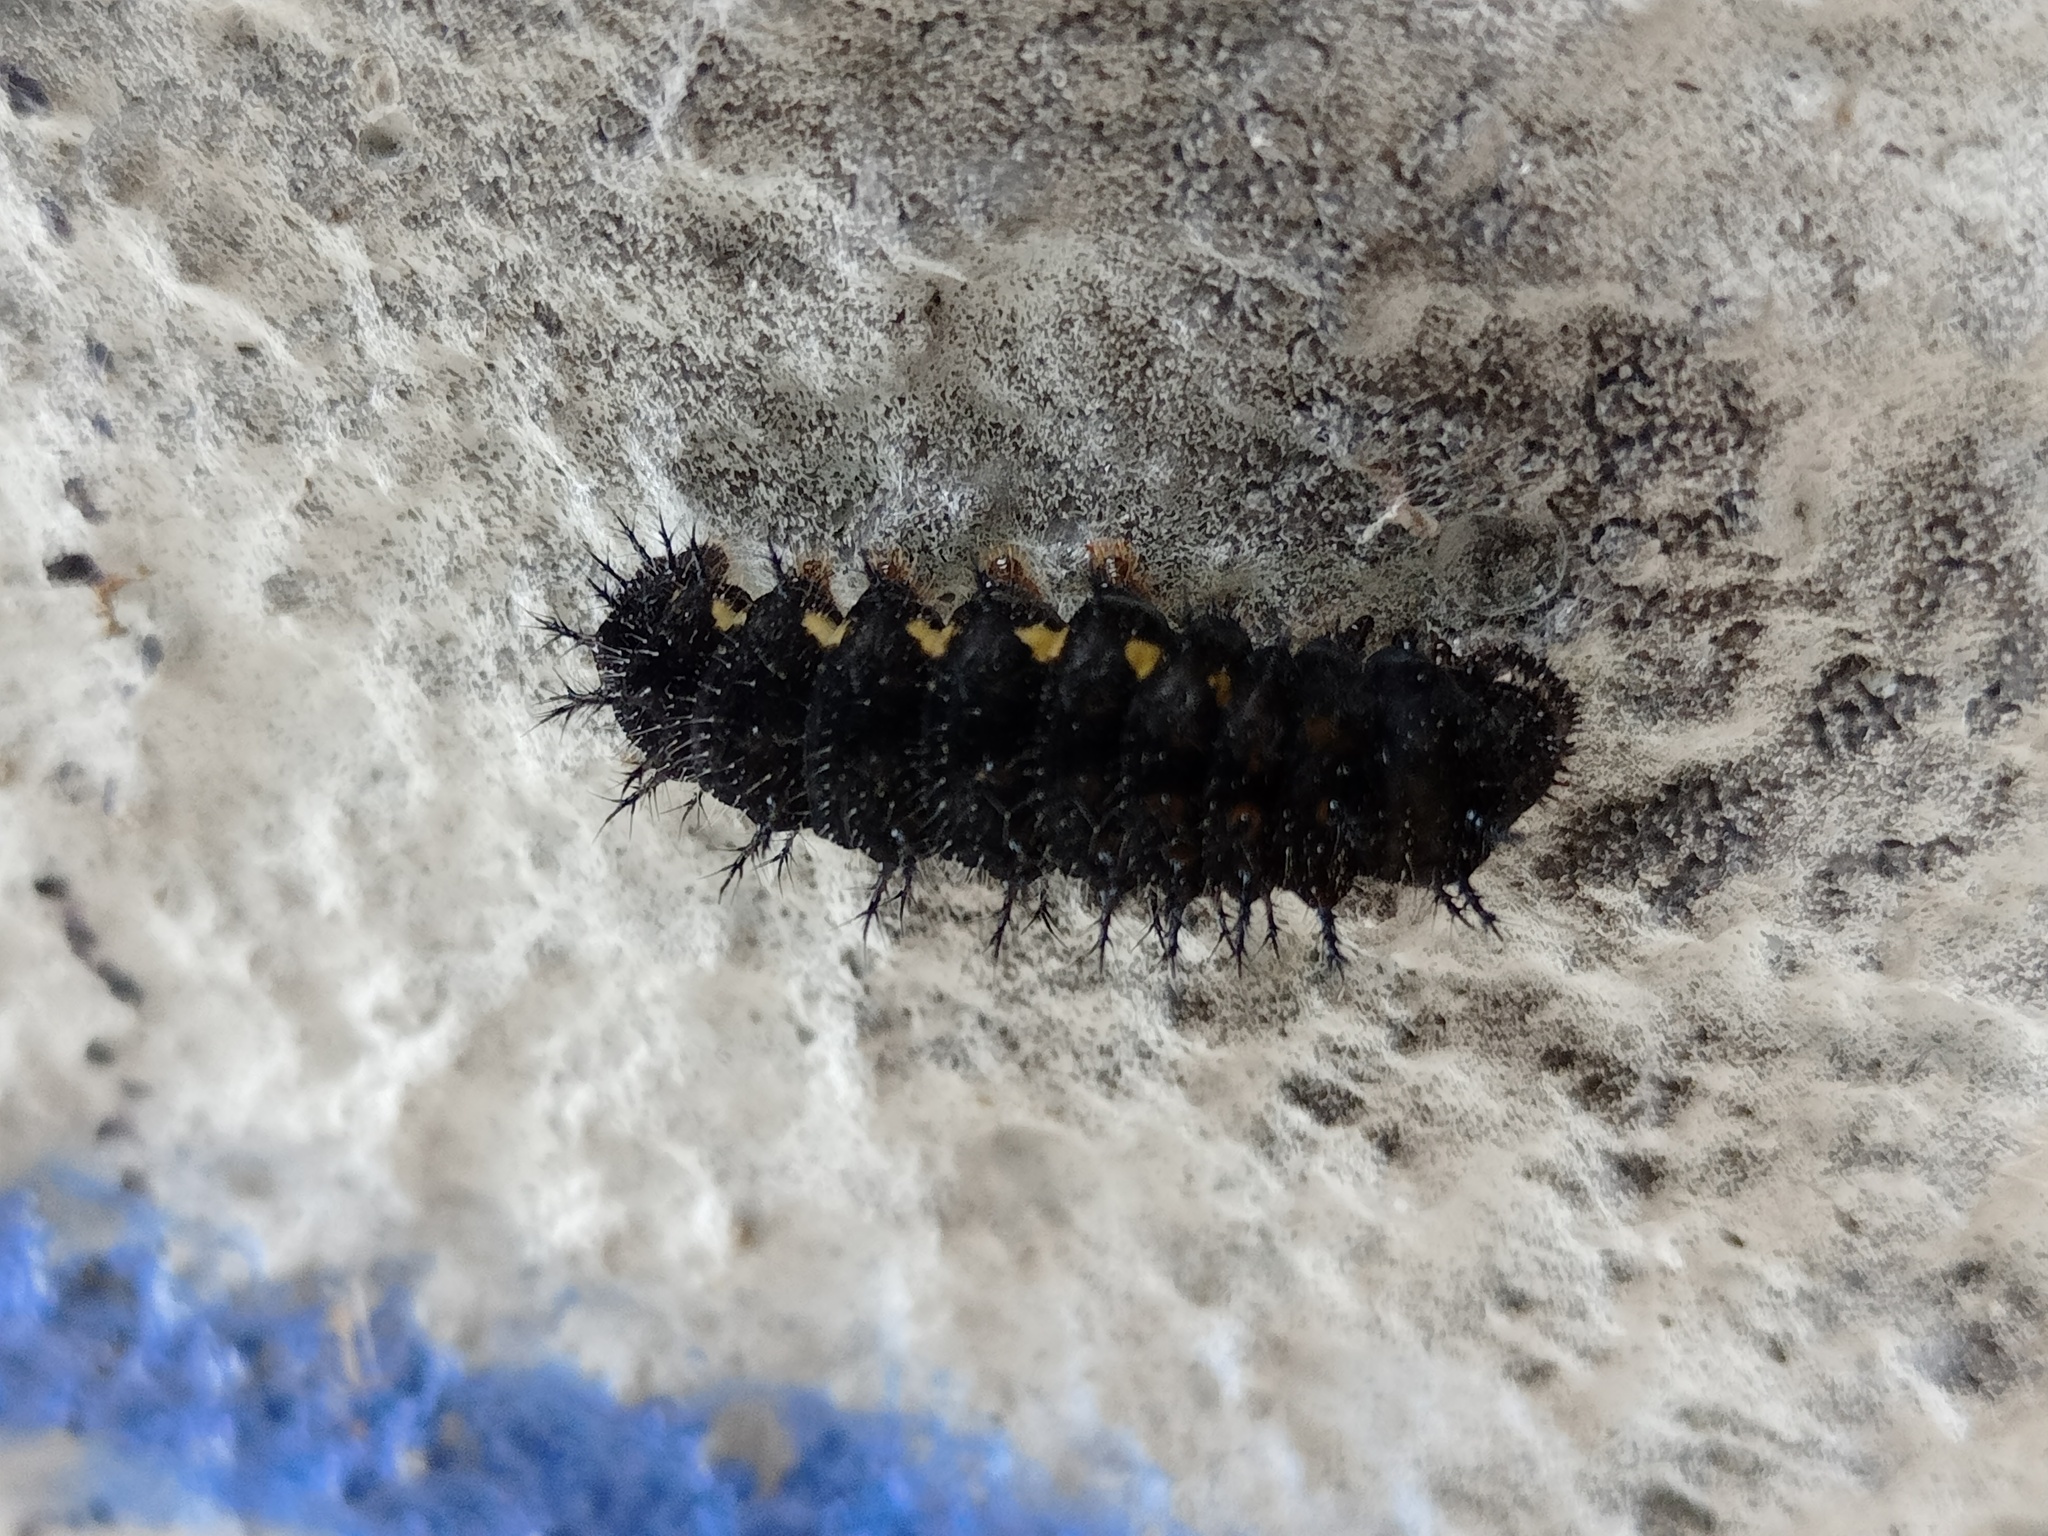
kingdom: Animalia
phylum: Arthropoda
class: Insecta
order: Lepidoptera
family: Nymphalidae
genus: Vanessa
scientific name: Vanessa atalanta
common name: Red admiral
